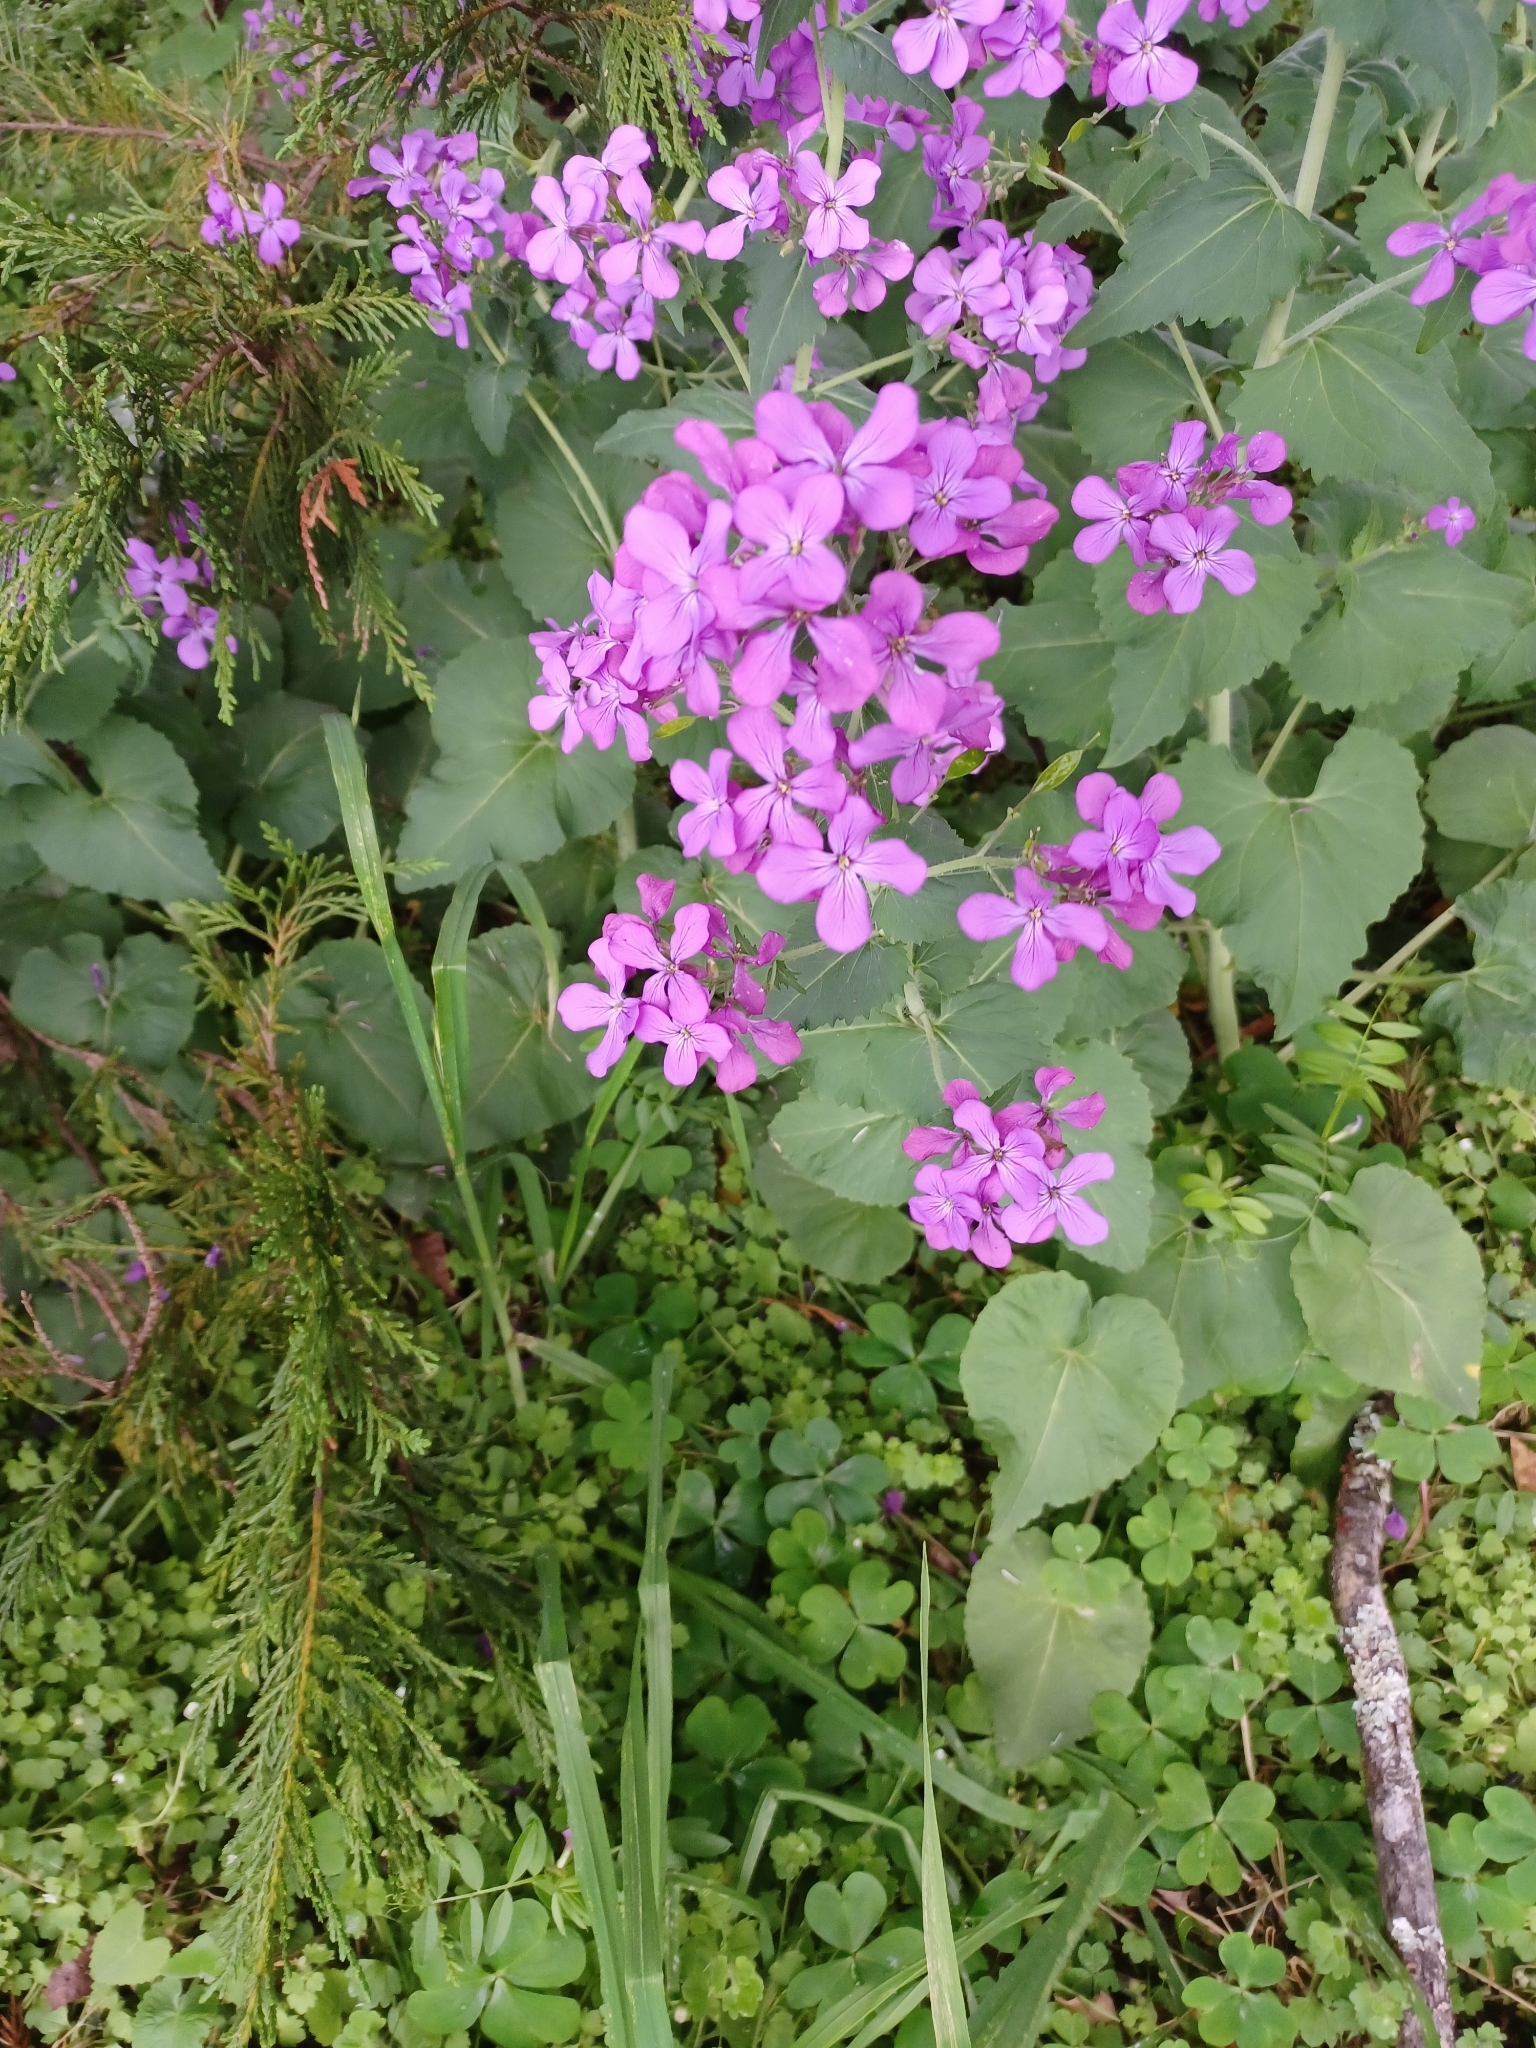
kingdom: Plantae
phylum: Tracheophyta
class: Magnoliopsida
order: Brassicales
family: Brassicaceae
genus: Lunaria
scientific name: Lunaria annua
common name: Honesty
